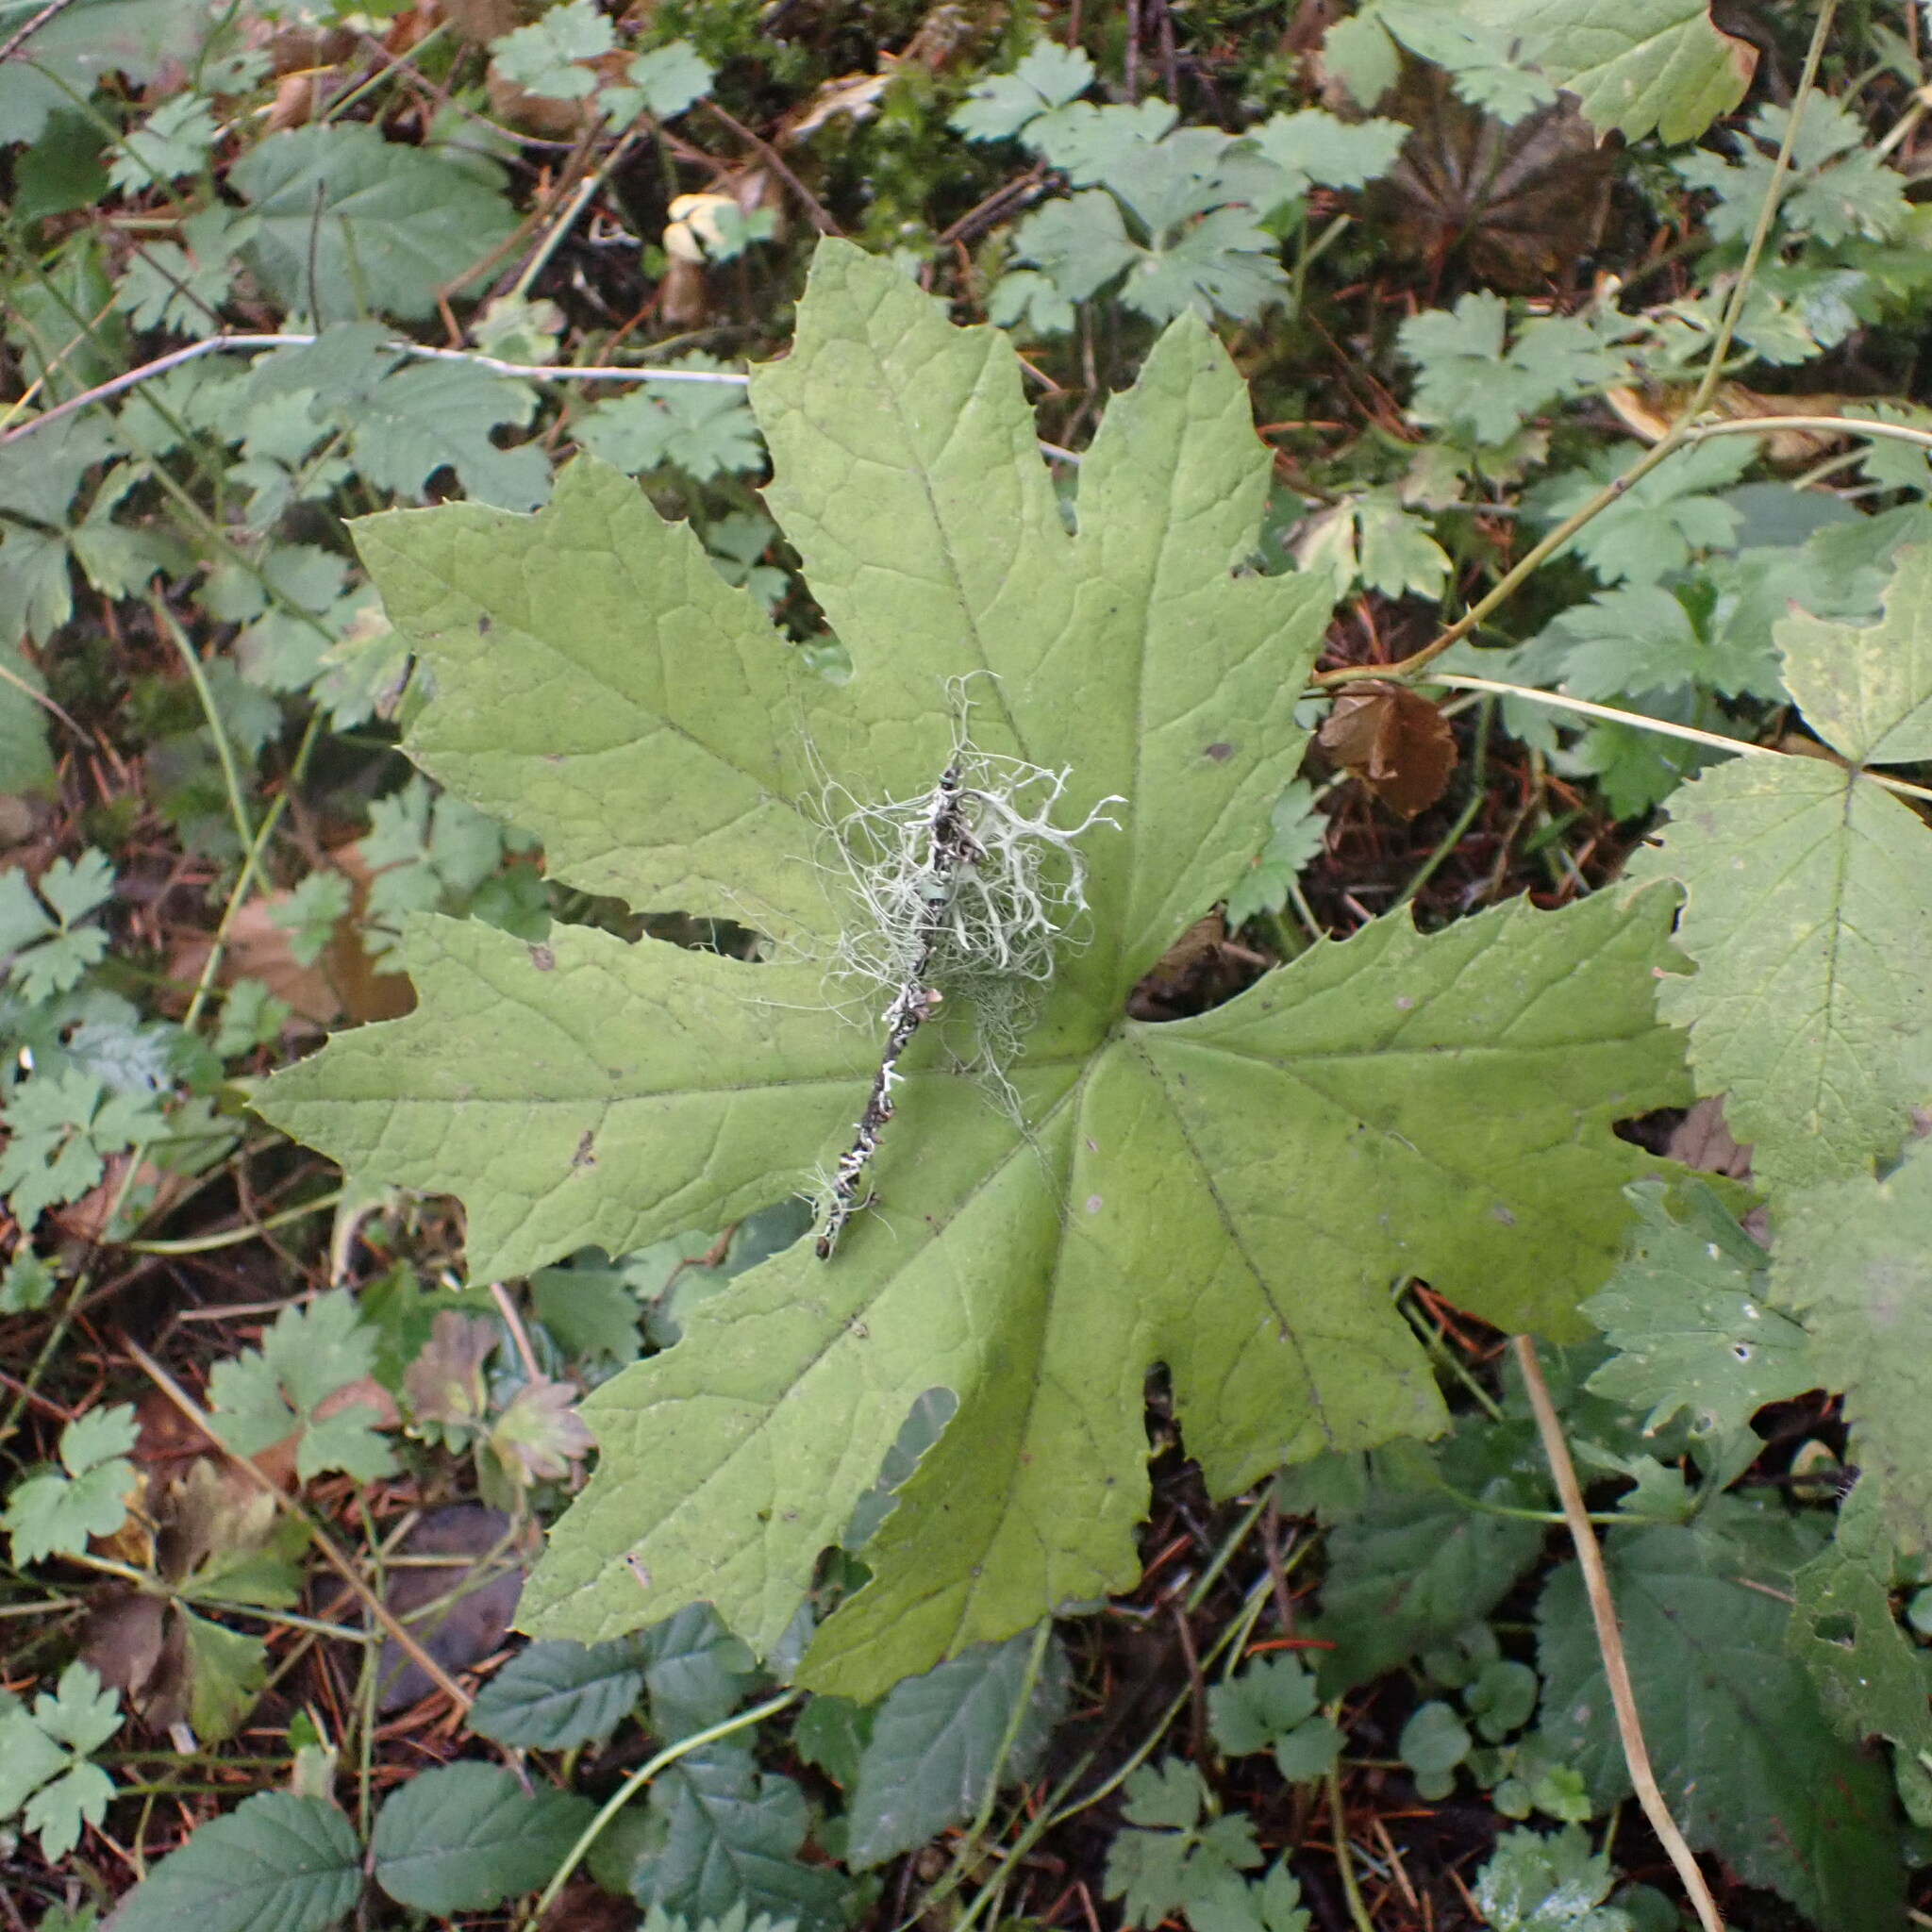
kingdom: Plantae
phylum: Tracheophyta
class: Magnoliopsida
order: Asterales
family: Asteraceae
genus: Petasites
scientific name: Petasites frigidus
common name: Arctic butterbur
